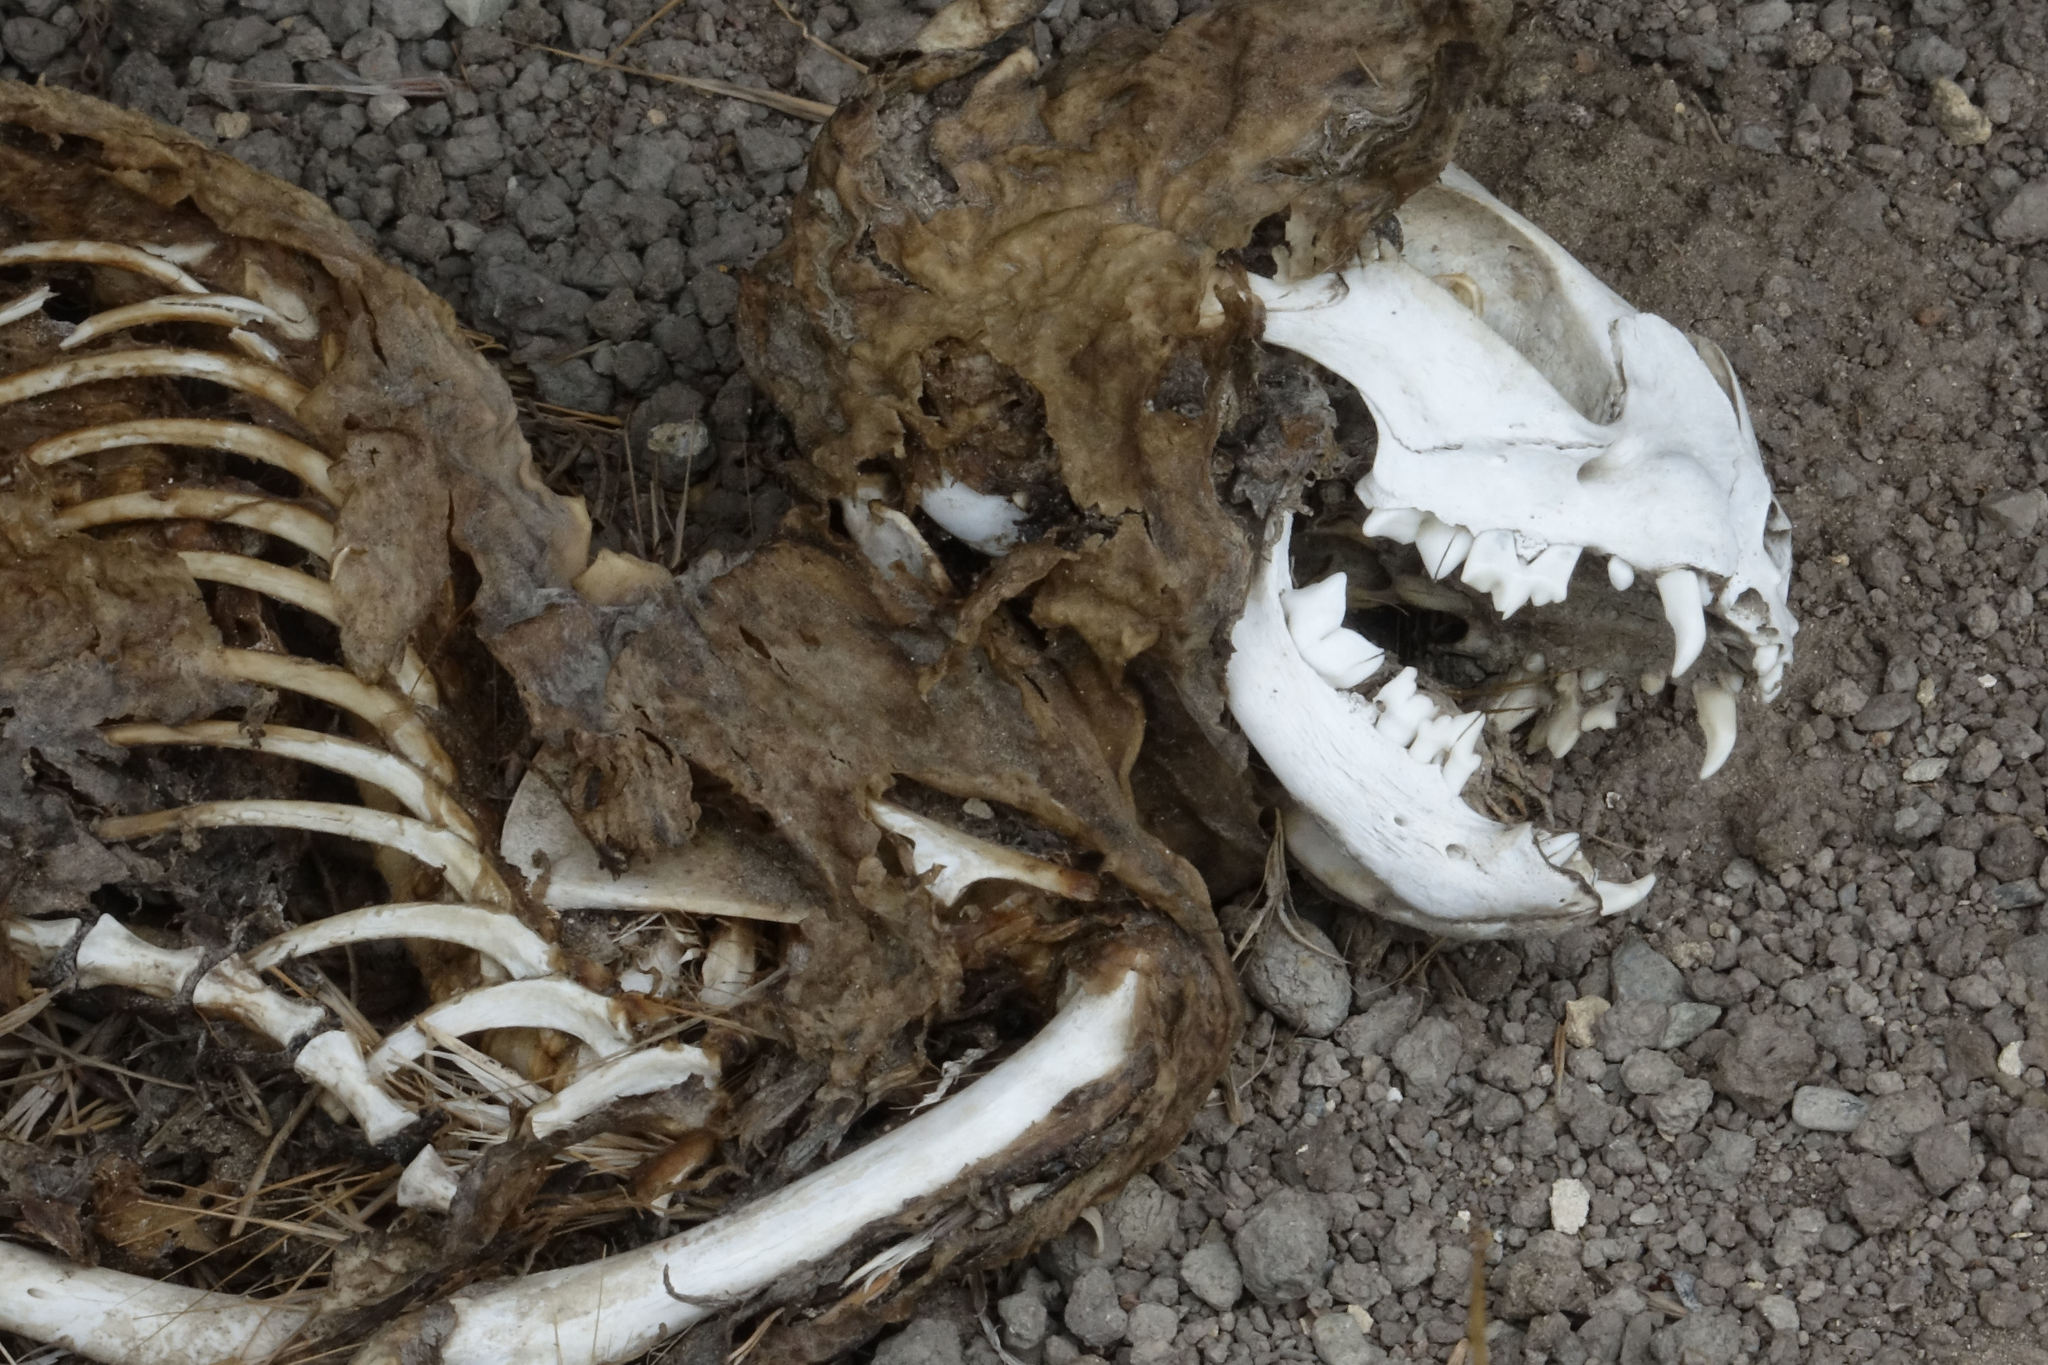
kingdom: Animalia
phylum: Chordata
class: Mammalia
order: Carnivora
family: Felidae
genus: Felis
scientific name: Felis catus
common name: Domestic cat
